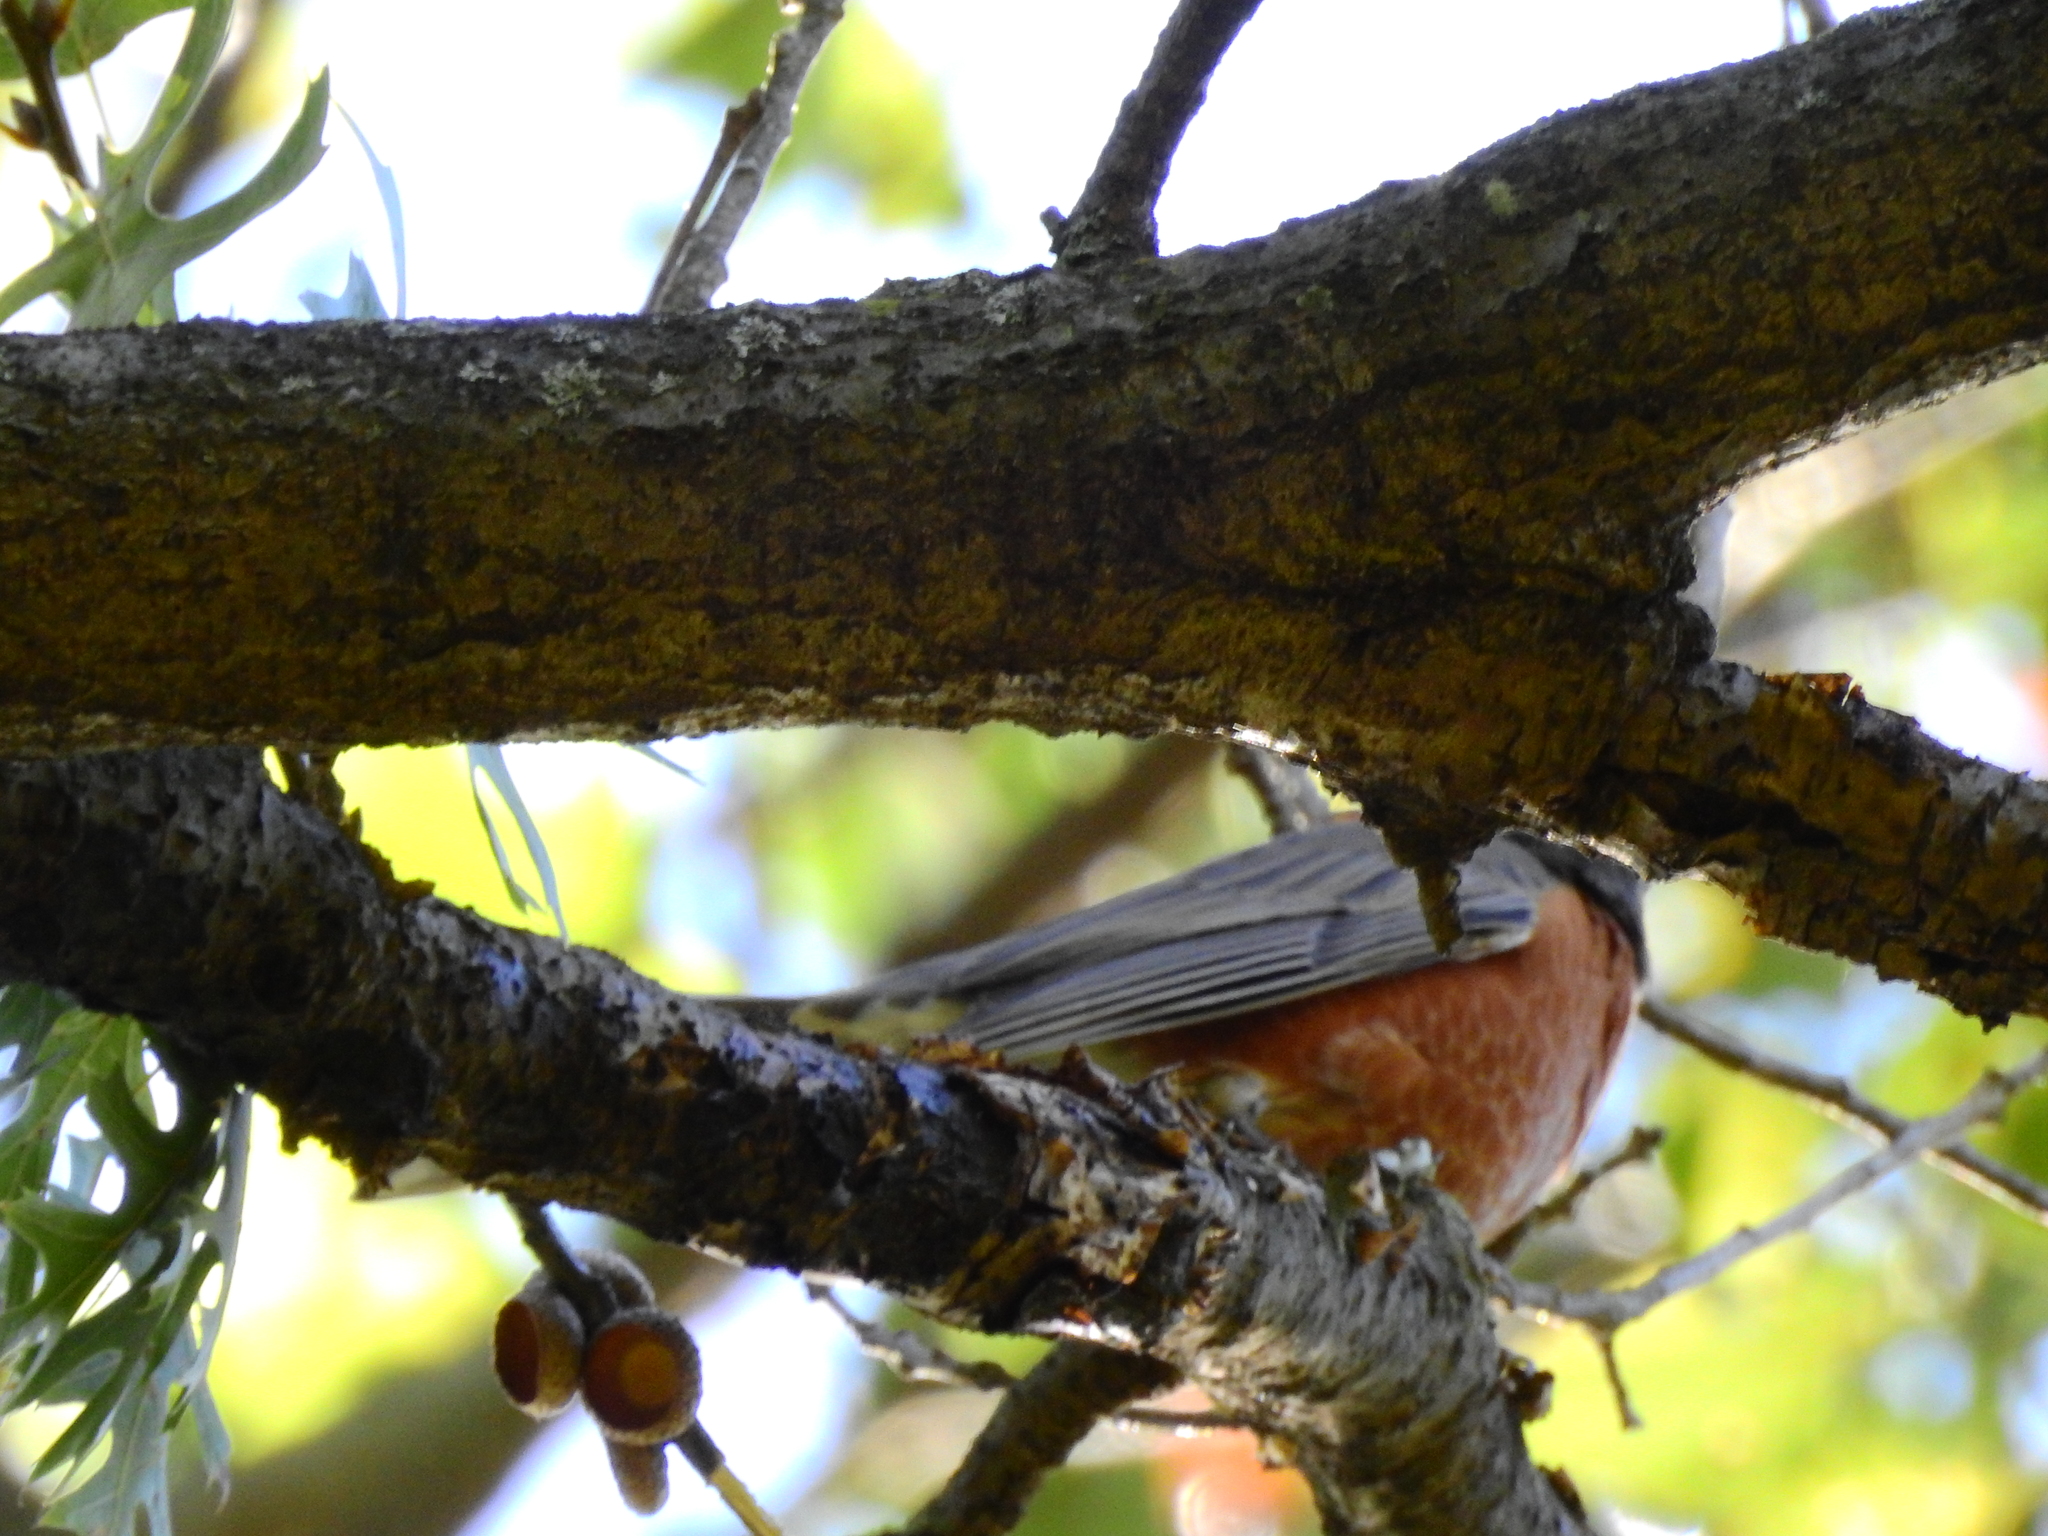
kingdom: Animalia
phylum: Chordata
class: Aves
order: Passeriformes
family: Turdidae
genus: Turdus
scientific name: Turdus migratorius
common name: American robin
